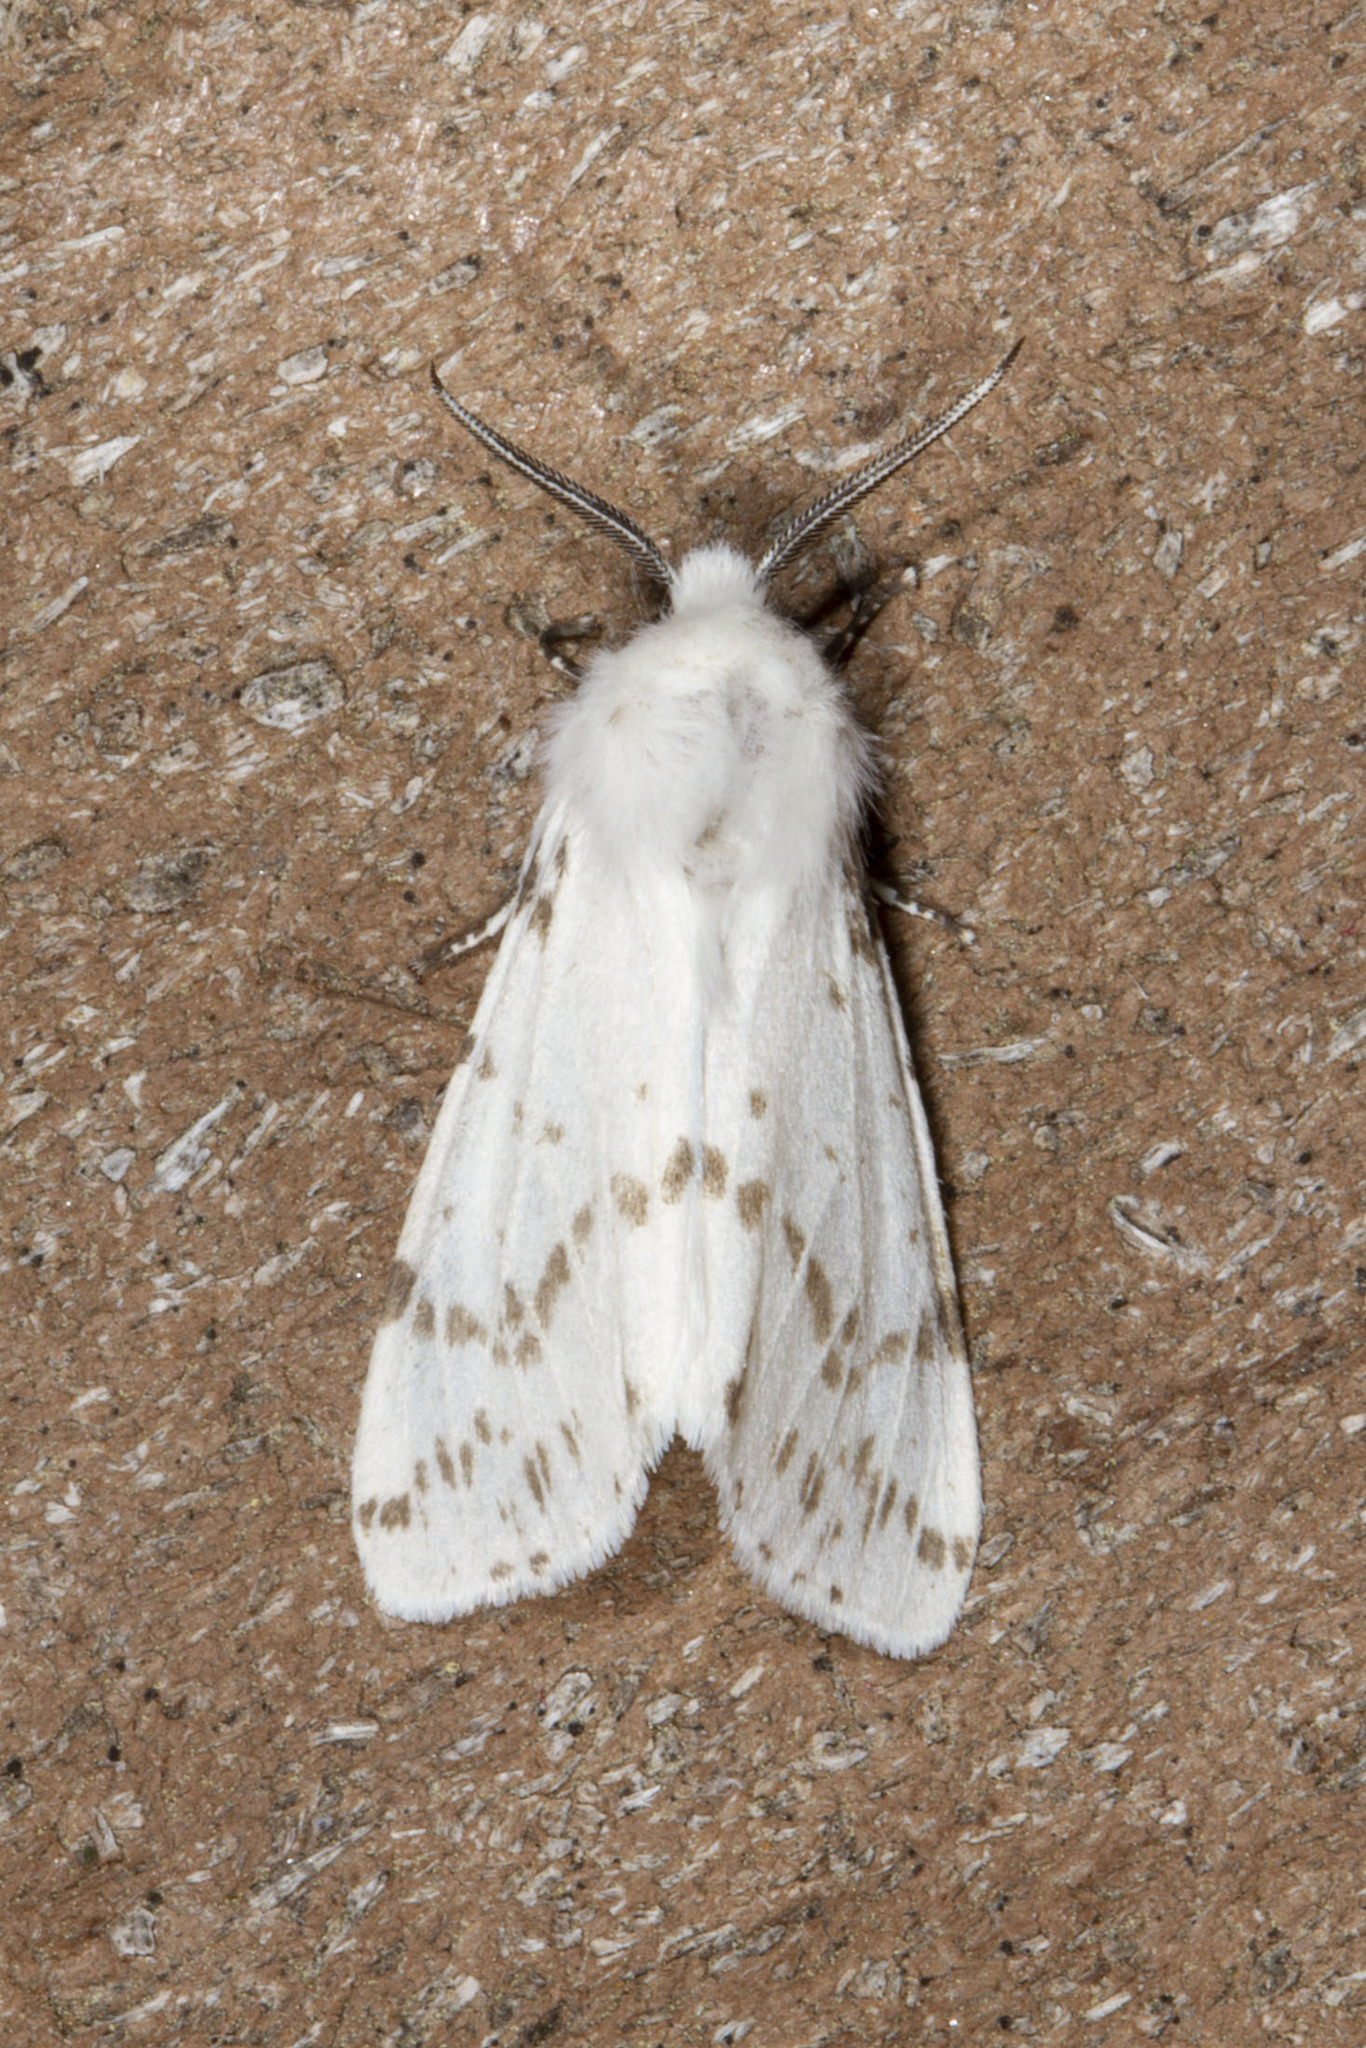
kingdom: Animalia
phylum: Arthropoda
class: Insecta
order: Lepidoptera
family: Erebidae
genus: Hyphantria
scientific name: Hyphantria cunea
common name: American white moth
